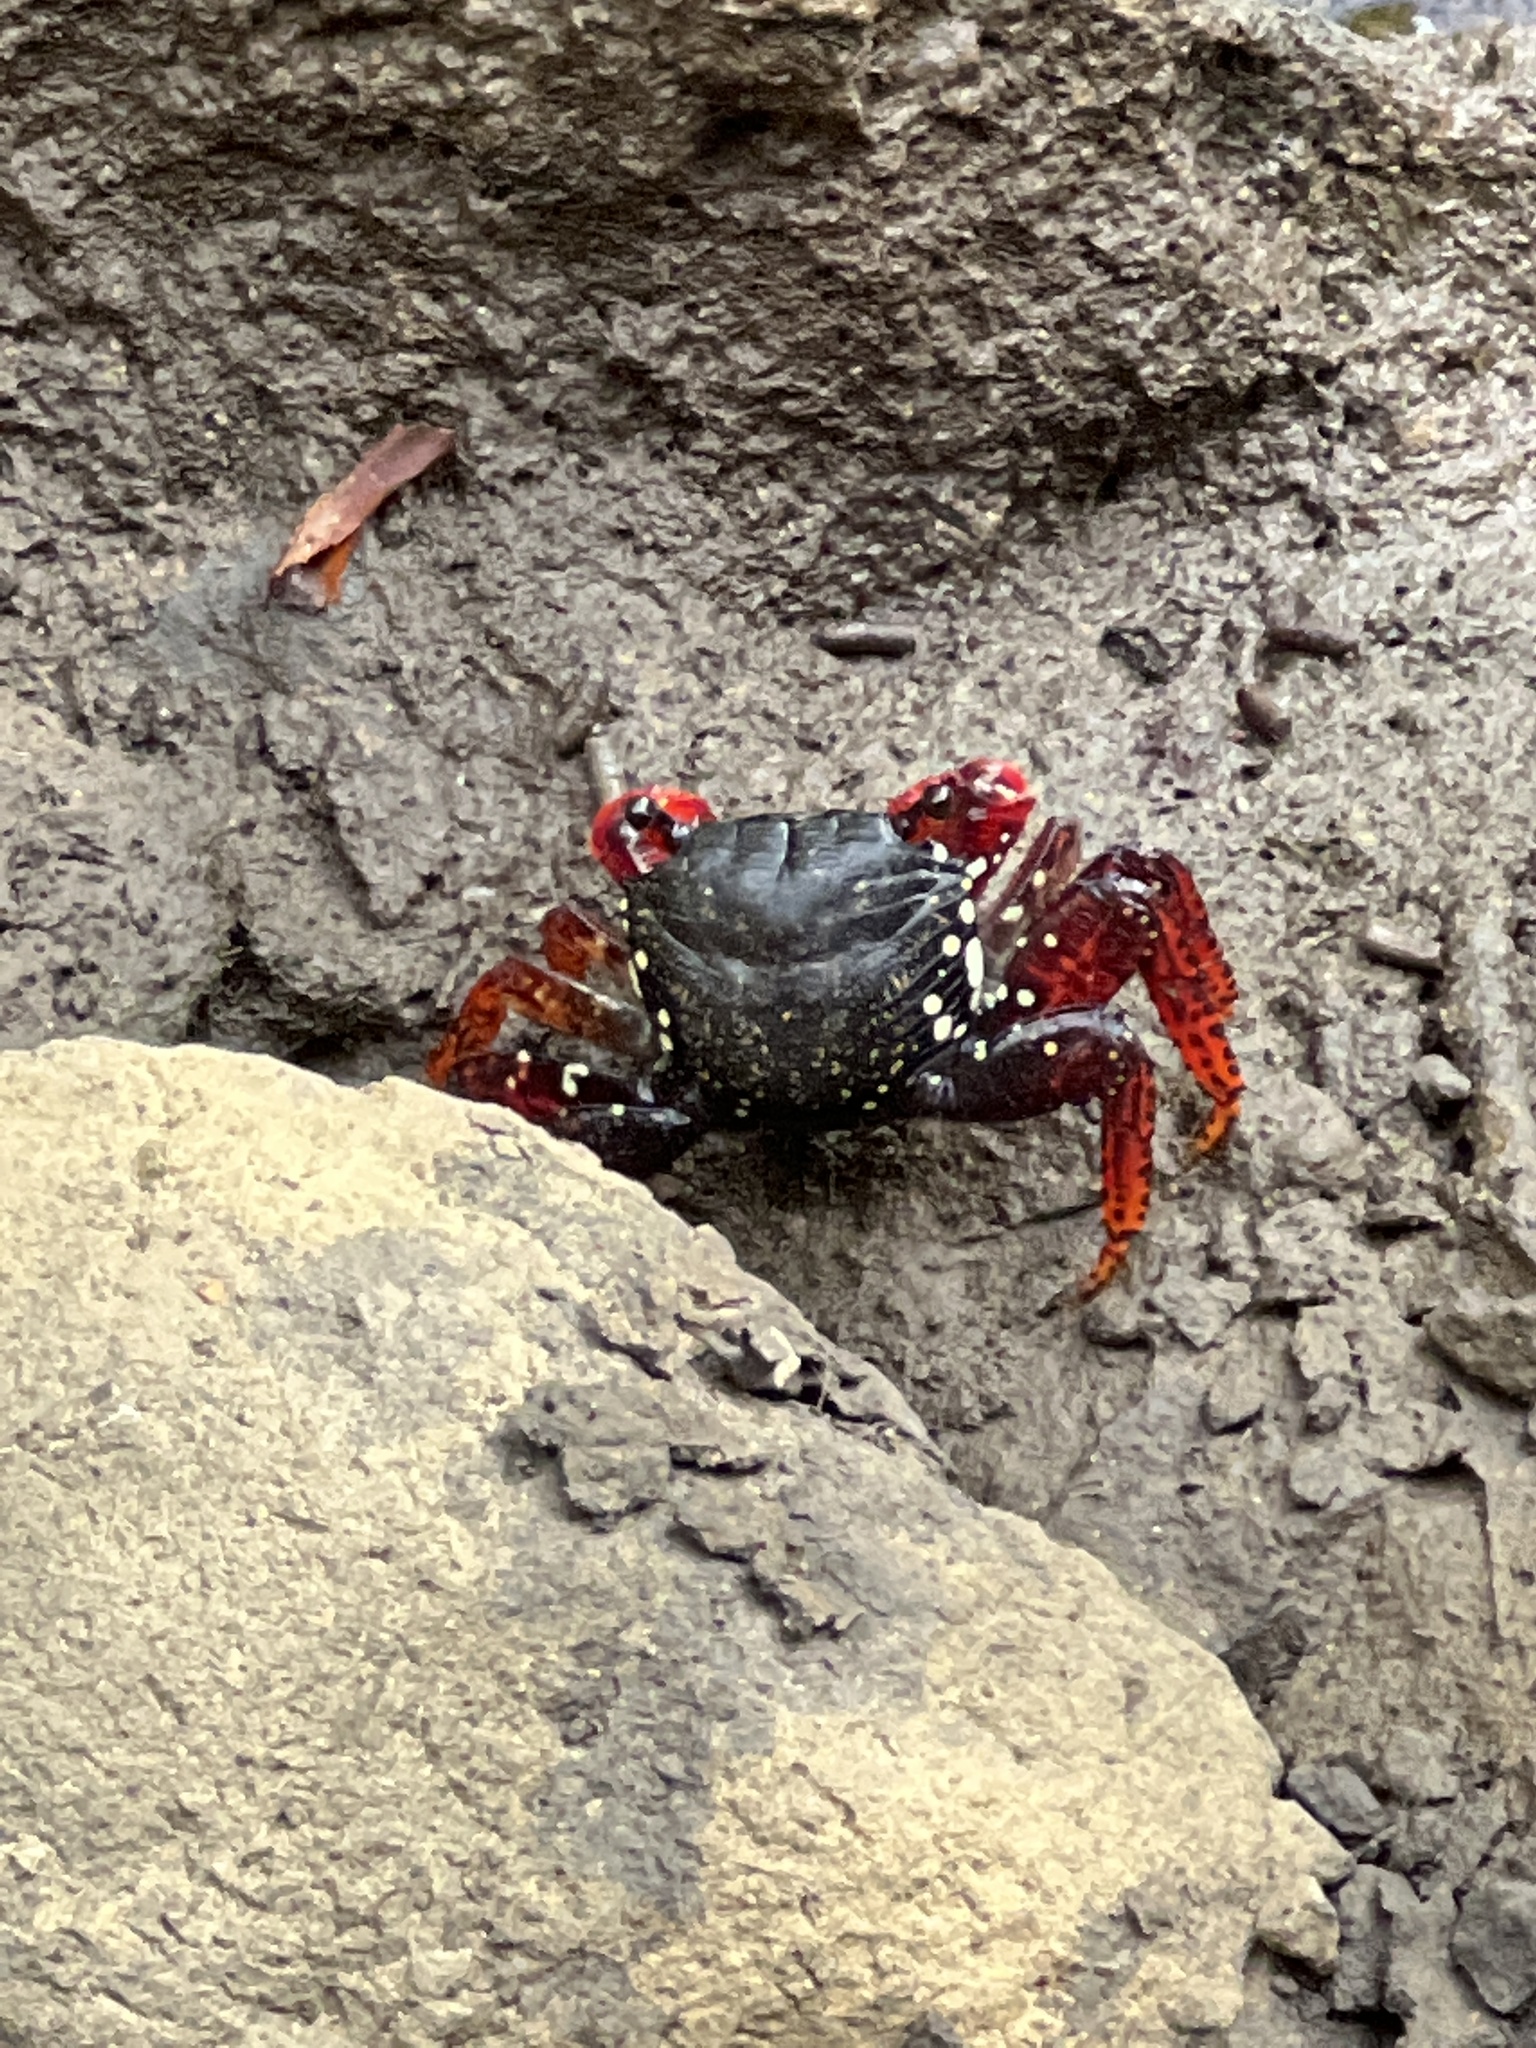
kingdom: Animalia
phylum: Arthropoda
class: Malacostraca
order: Decapoda
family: Grapsidae
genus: Goniopsis
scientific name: Goniopsis cruentata
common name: Mangrove crab
